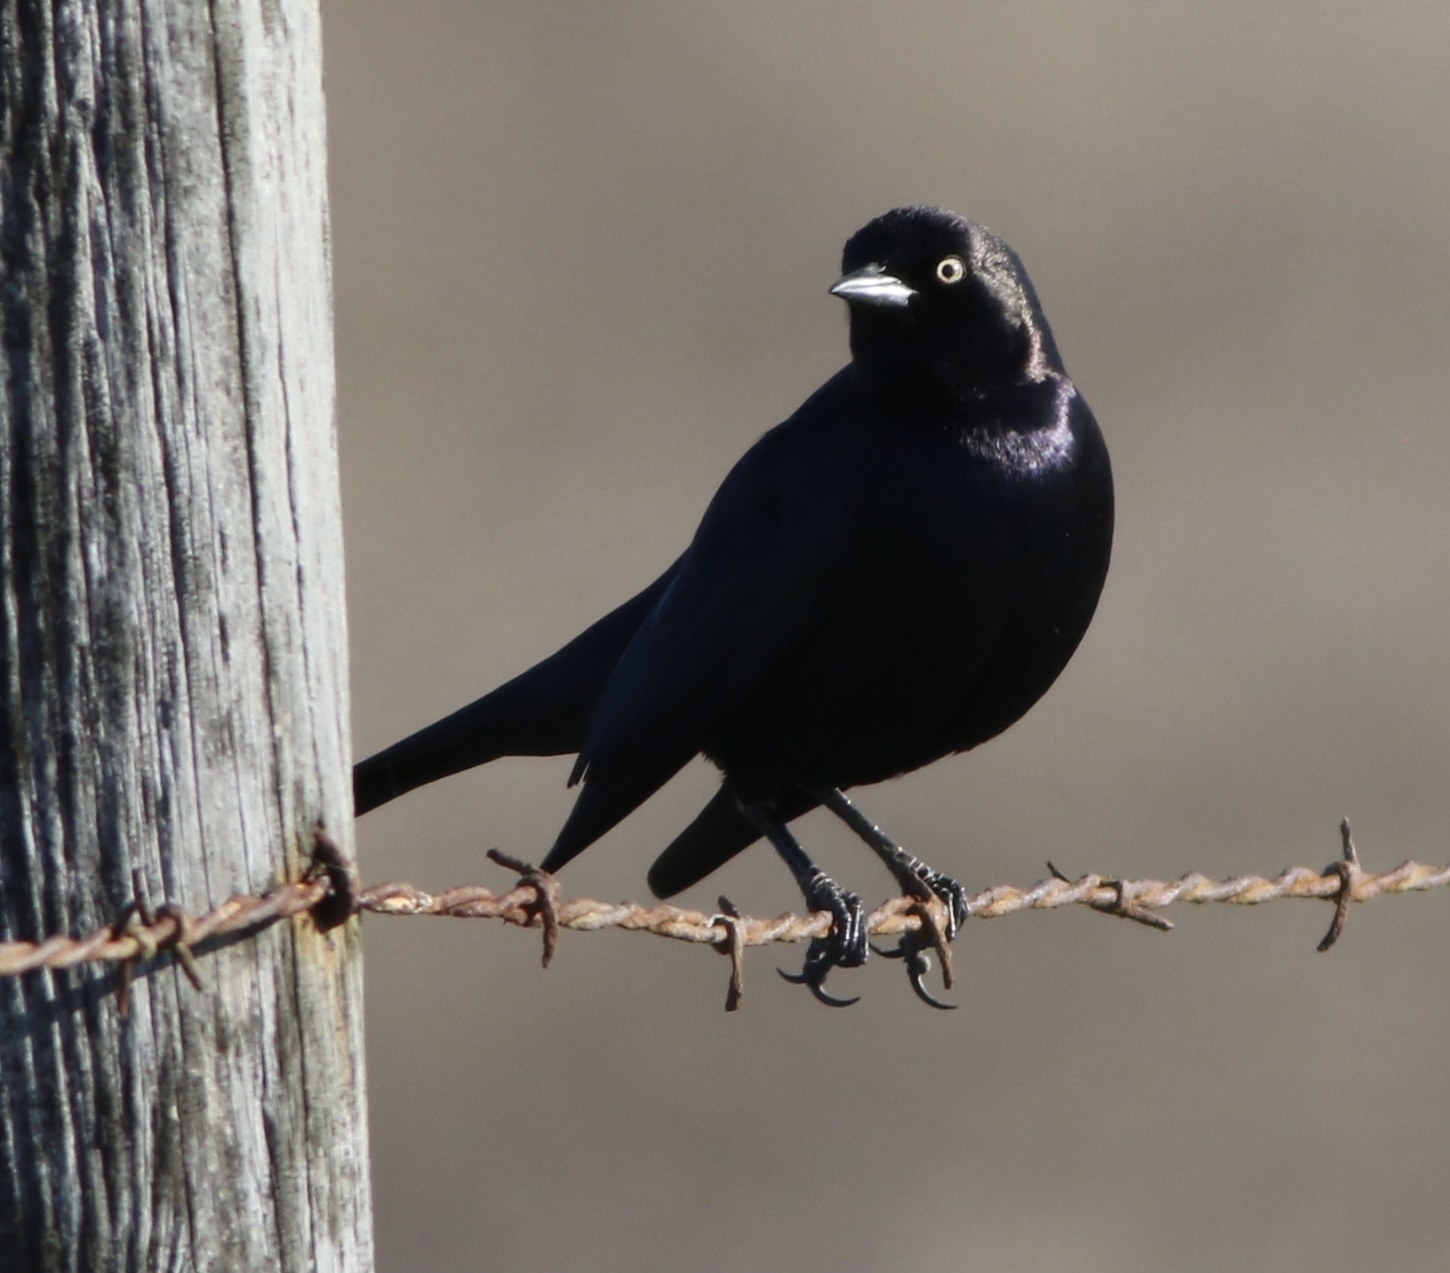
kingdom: Animalia
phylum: Chordata
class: Aves
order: Passeriformes
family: Icteridae
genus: Euphagus
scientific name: Euphagus cyanocephalus
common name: Brewer's blackbird
